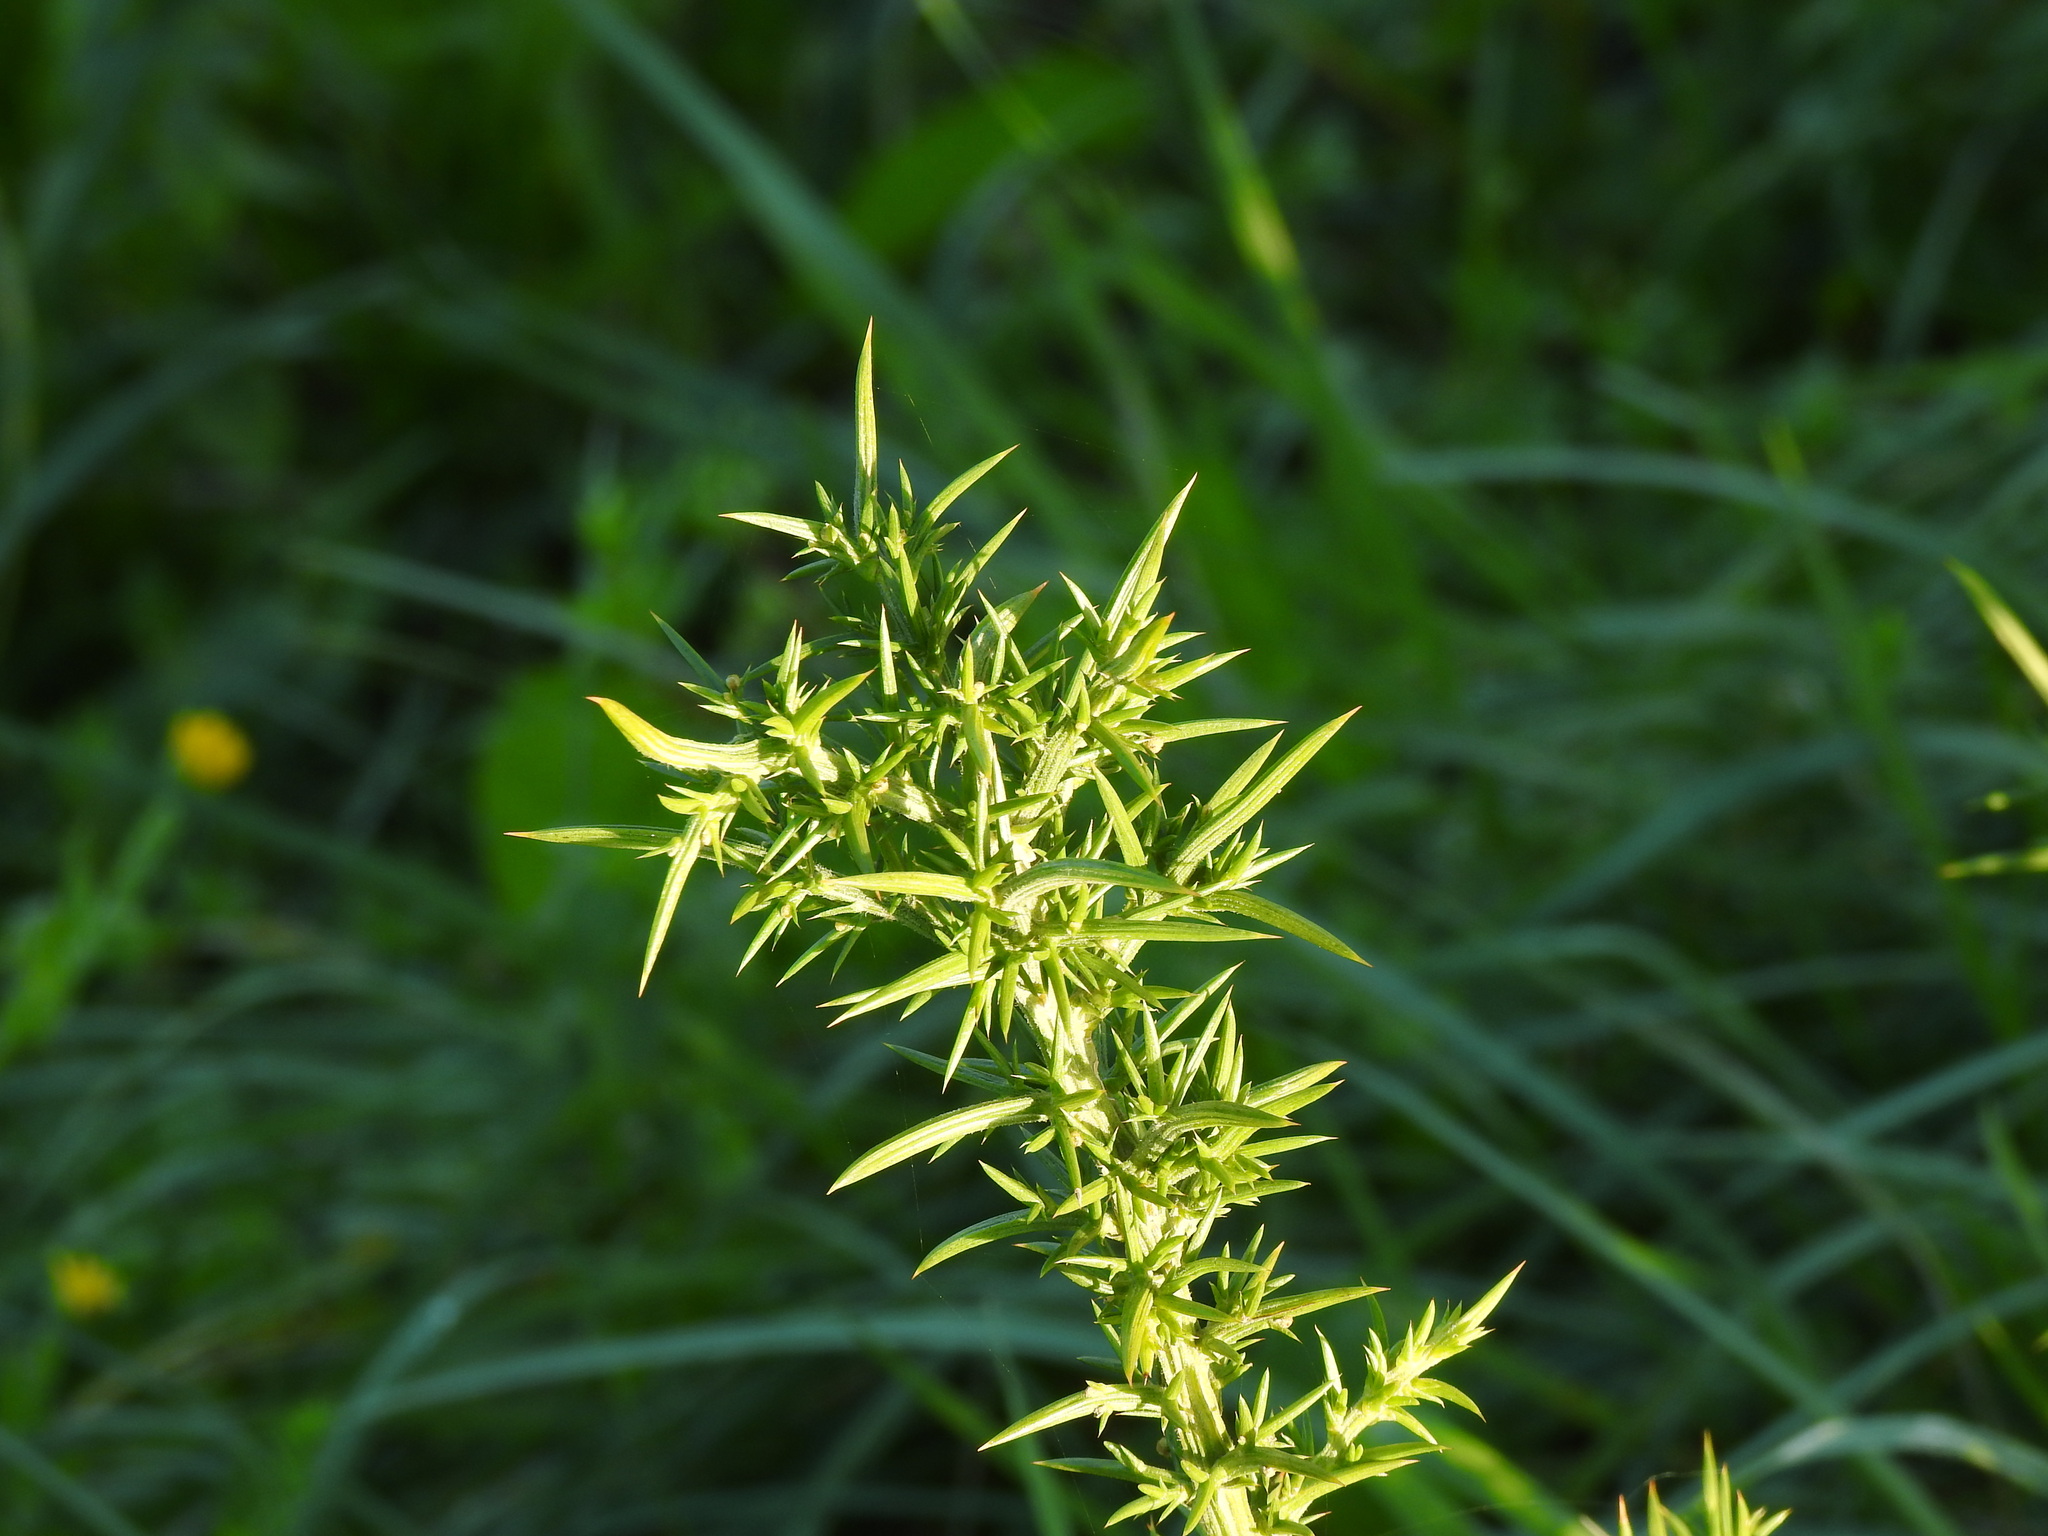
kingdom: Plantae
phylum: Tracheophyta
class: Magnoliopsida
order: Fabales
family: Fabaceae
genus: Ulex
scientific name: Ulex europaeus
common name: Common gorse
